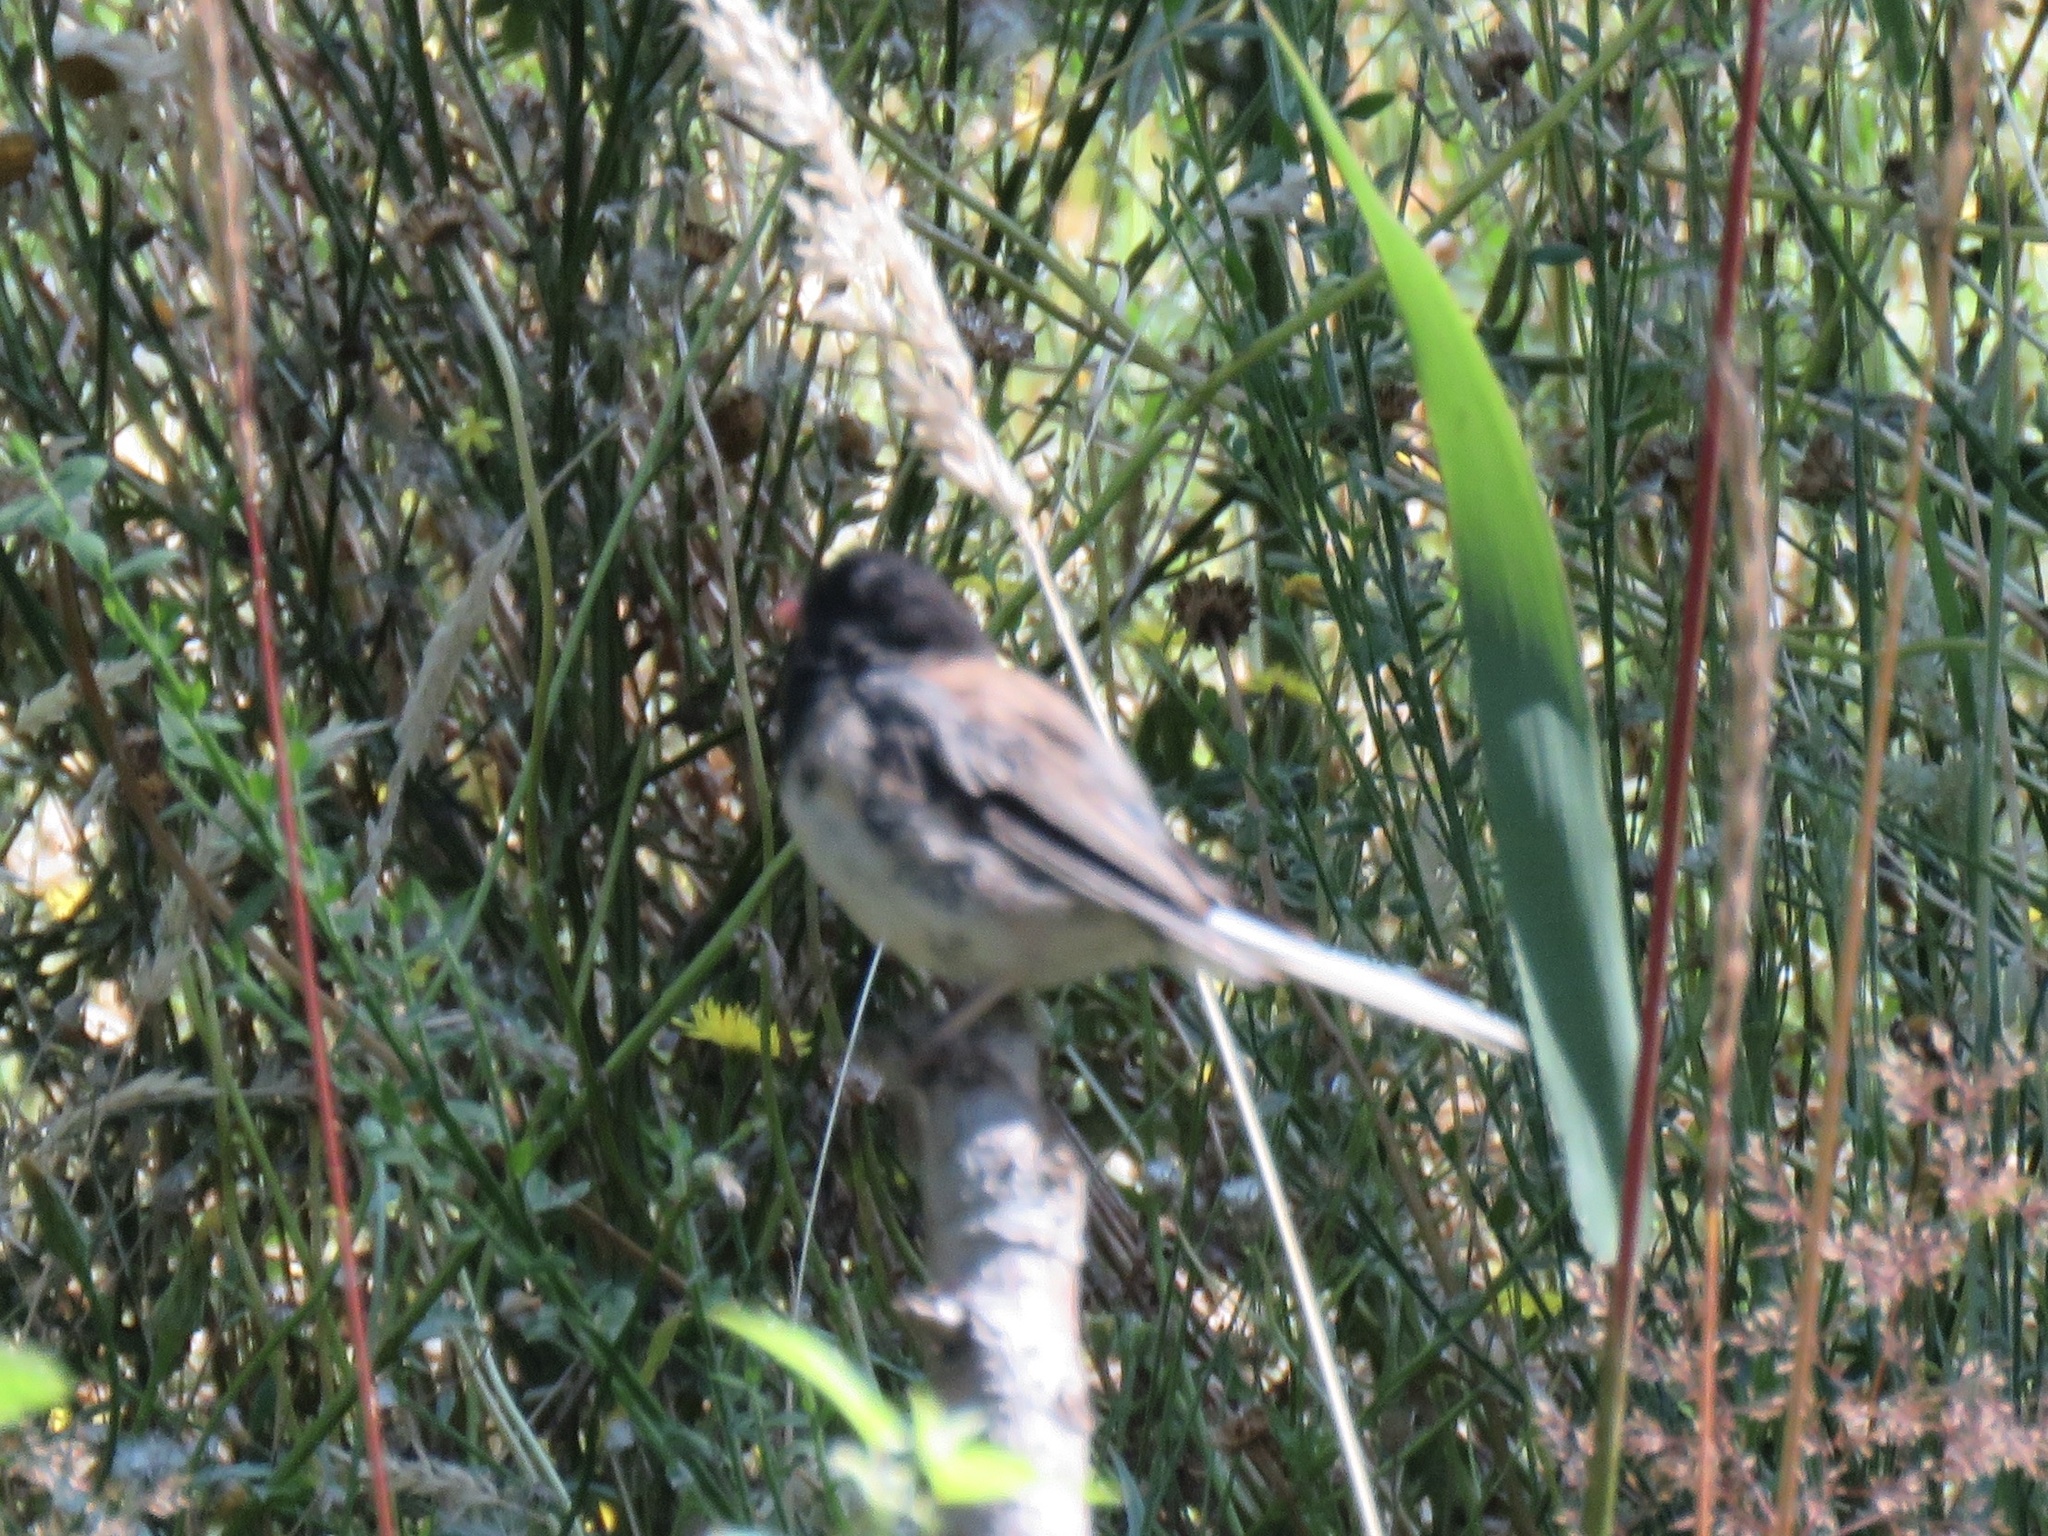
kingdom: Animalia
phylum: Chordata
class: Aves
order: Passeriformes
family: Passerellidae
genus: Junco
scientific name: Junco hyemalis
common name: Dark-eyed junco
